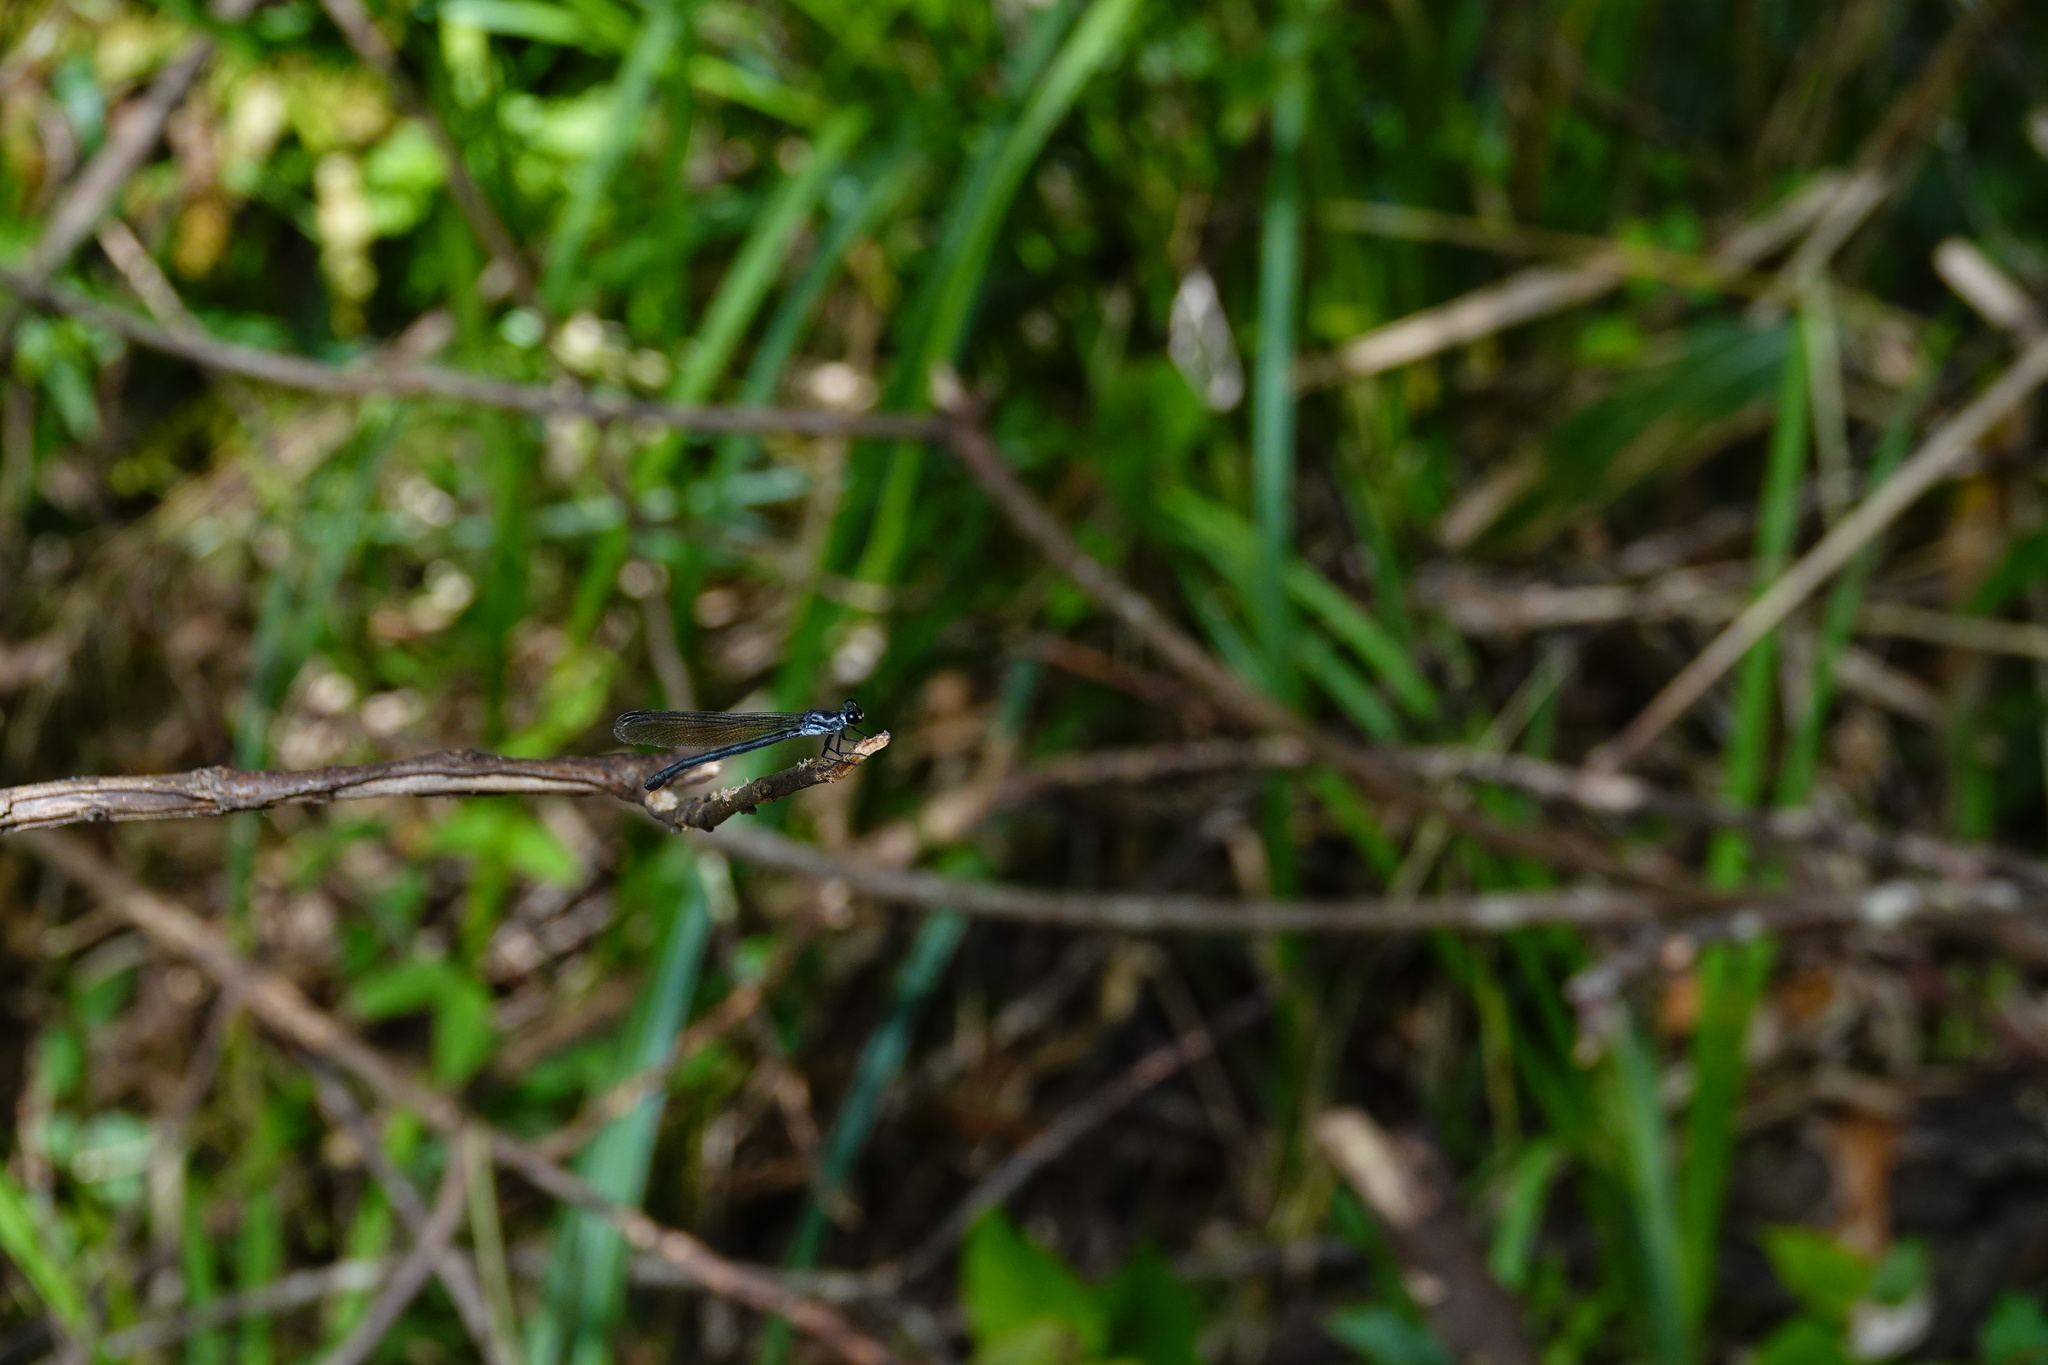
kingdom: Animalia
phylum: Arthropoda
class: Insecta
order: Odonata
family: Euphaeidae
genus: Bayadera
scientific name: Bayadera brevicauda
